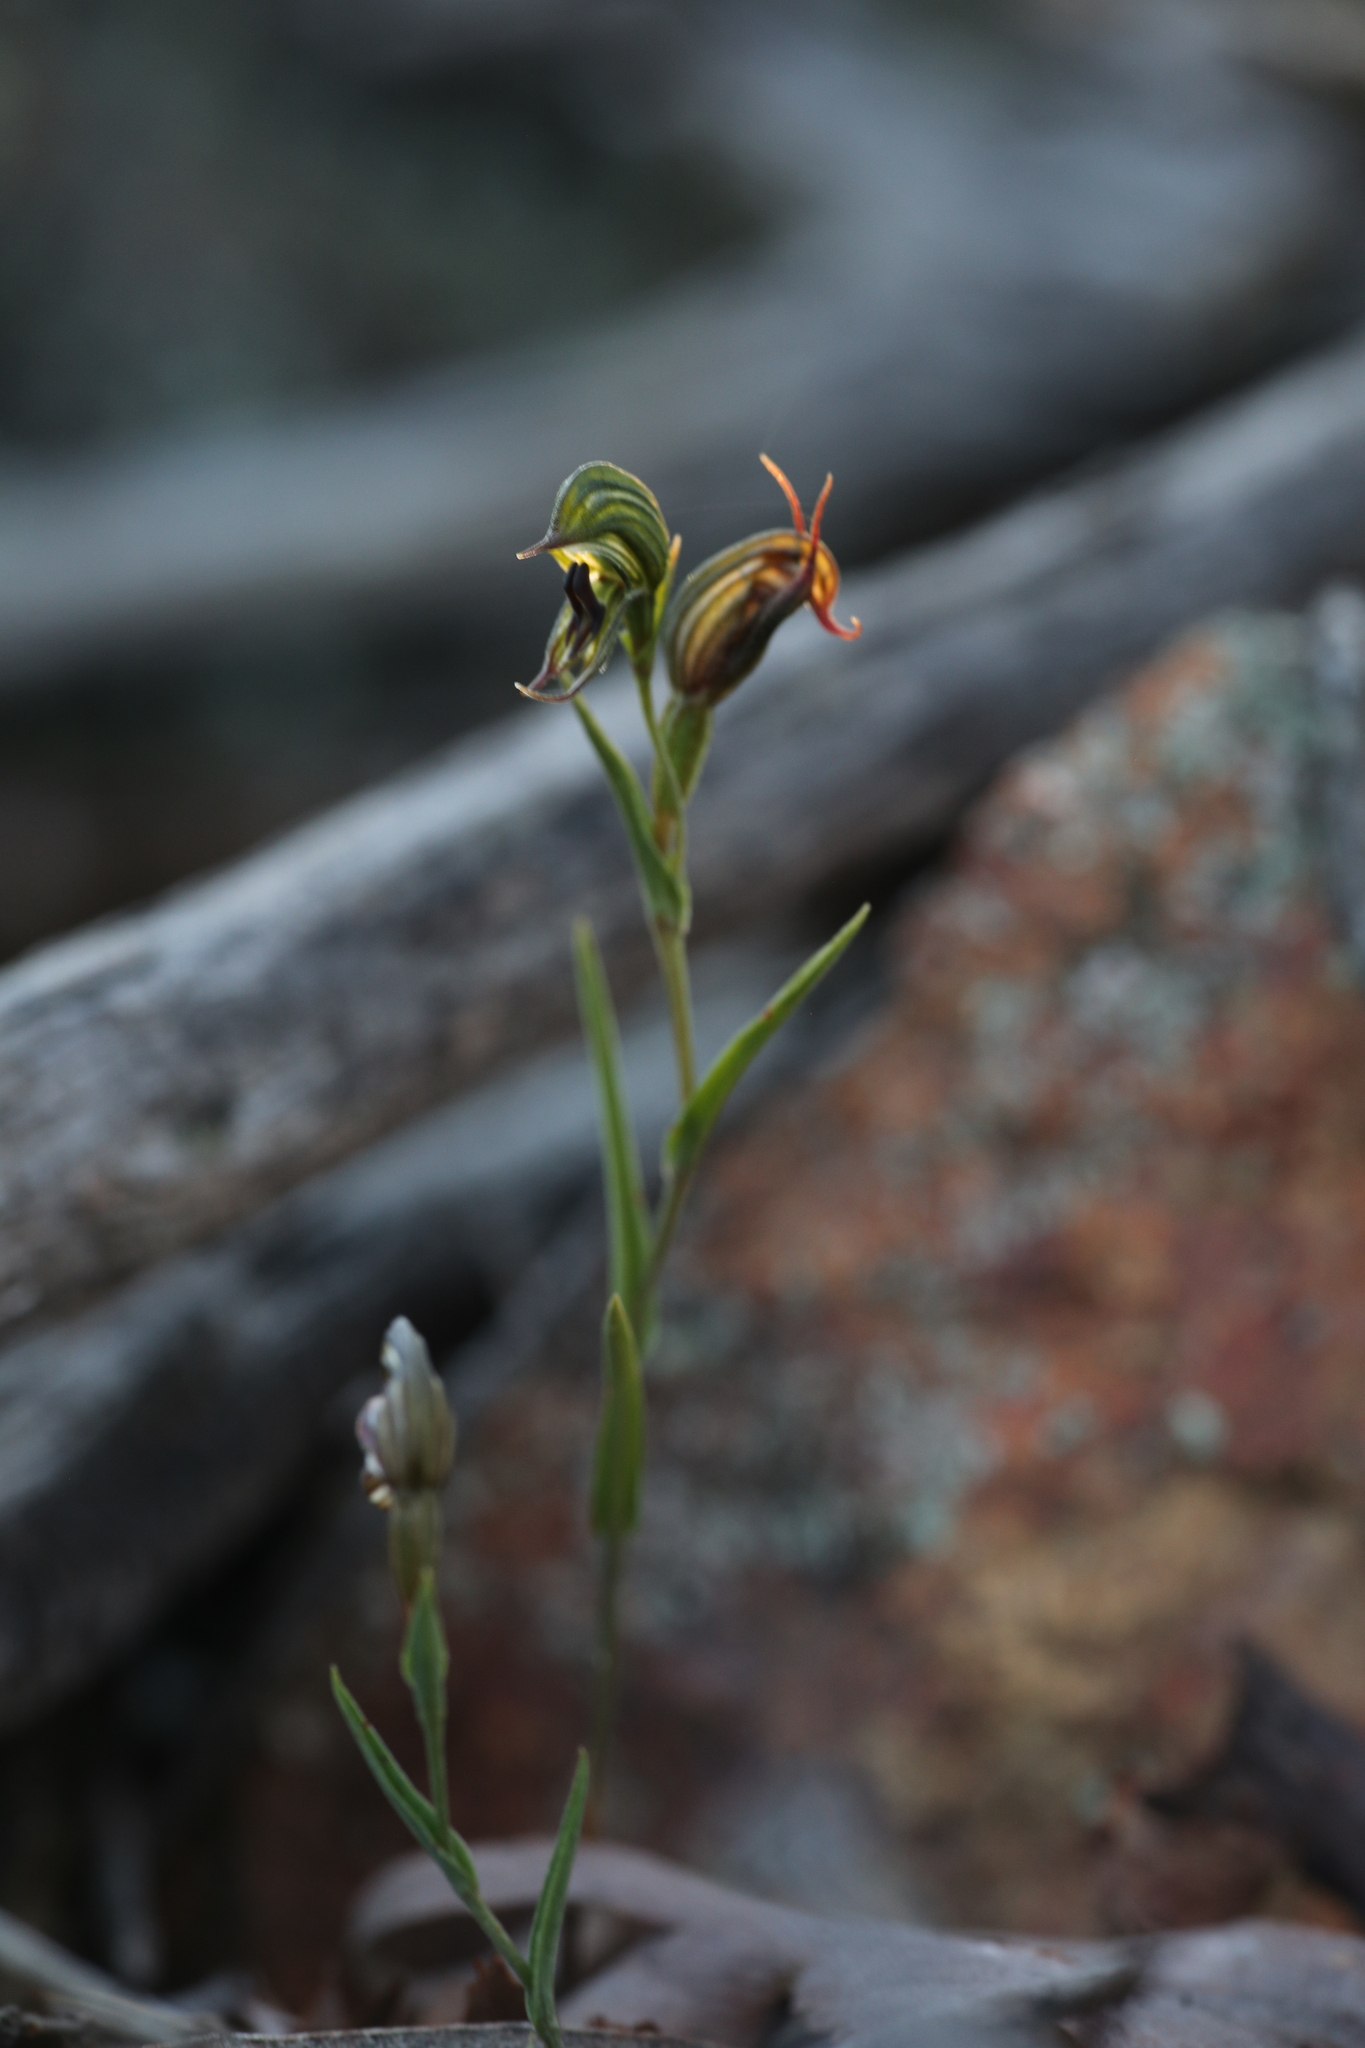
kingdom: Plantae
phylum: Tracheophyta
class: Liliopsida
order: Asparagales
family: Orchidaceae
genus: Pterostylis
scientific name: Pterostylis sargentii
